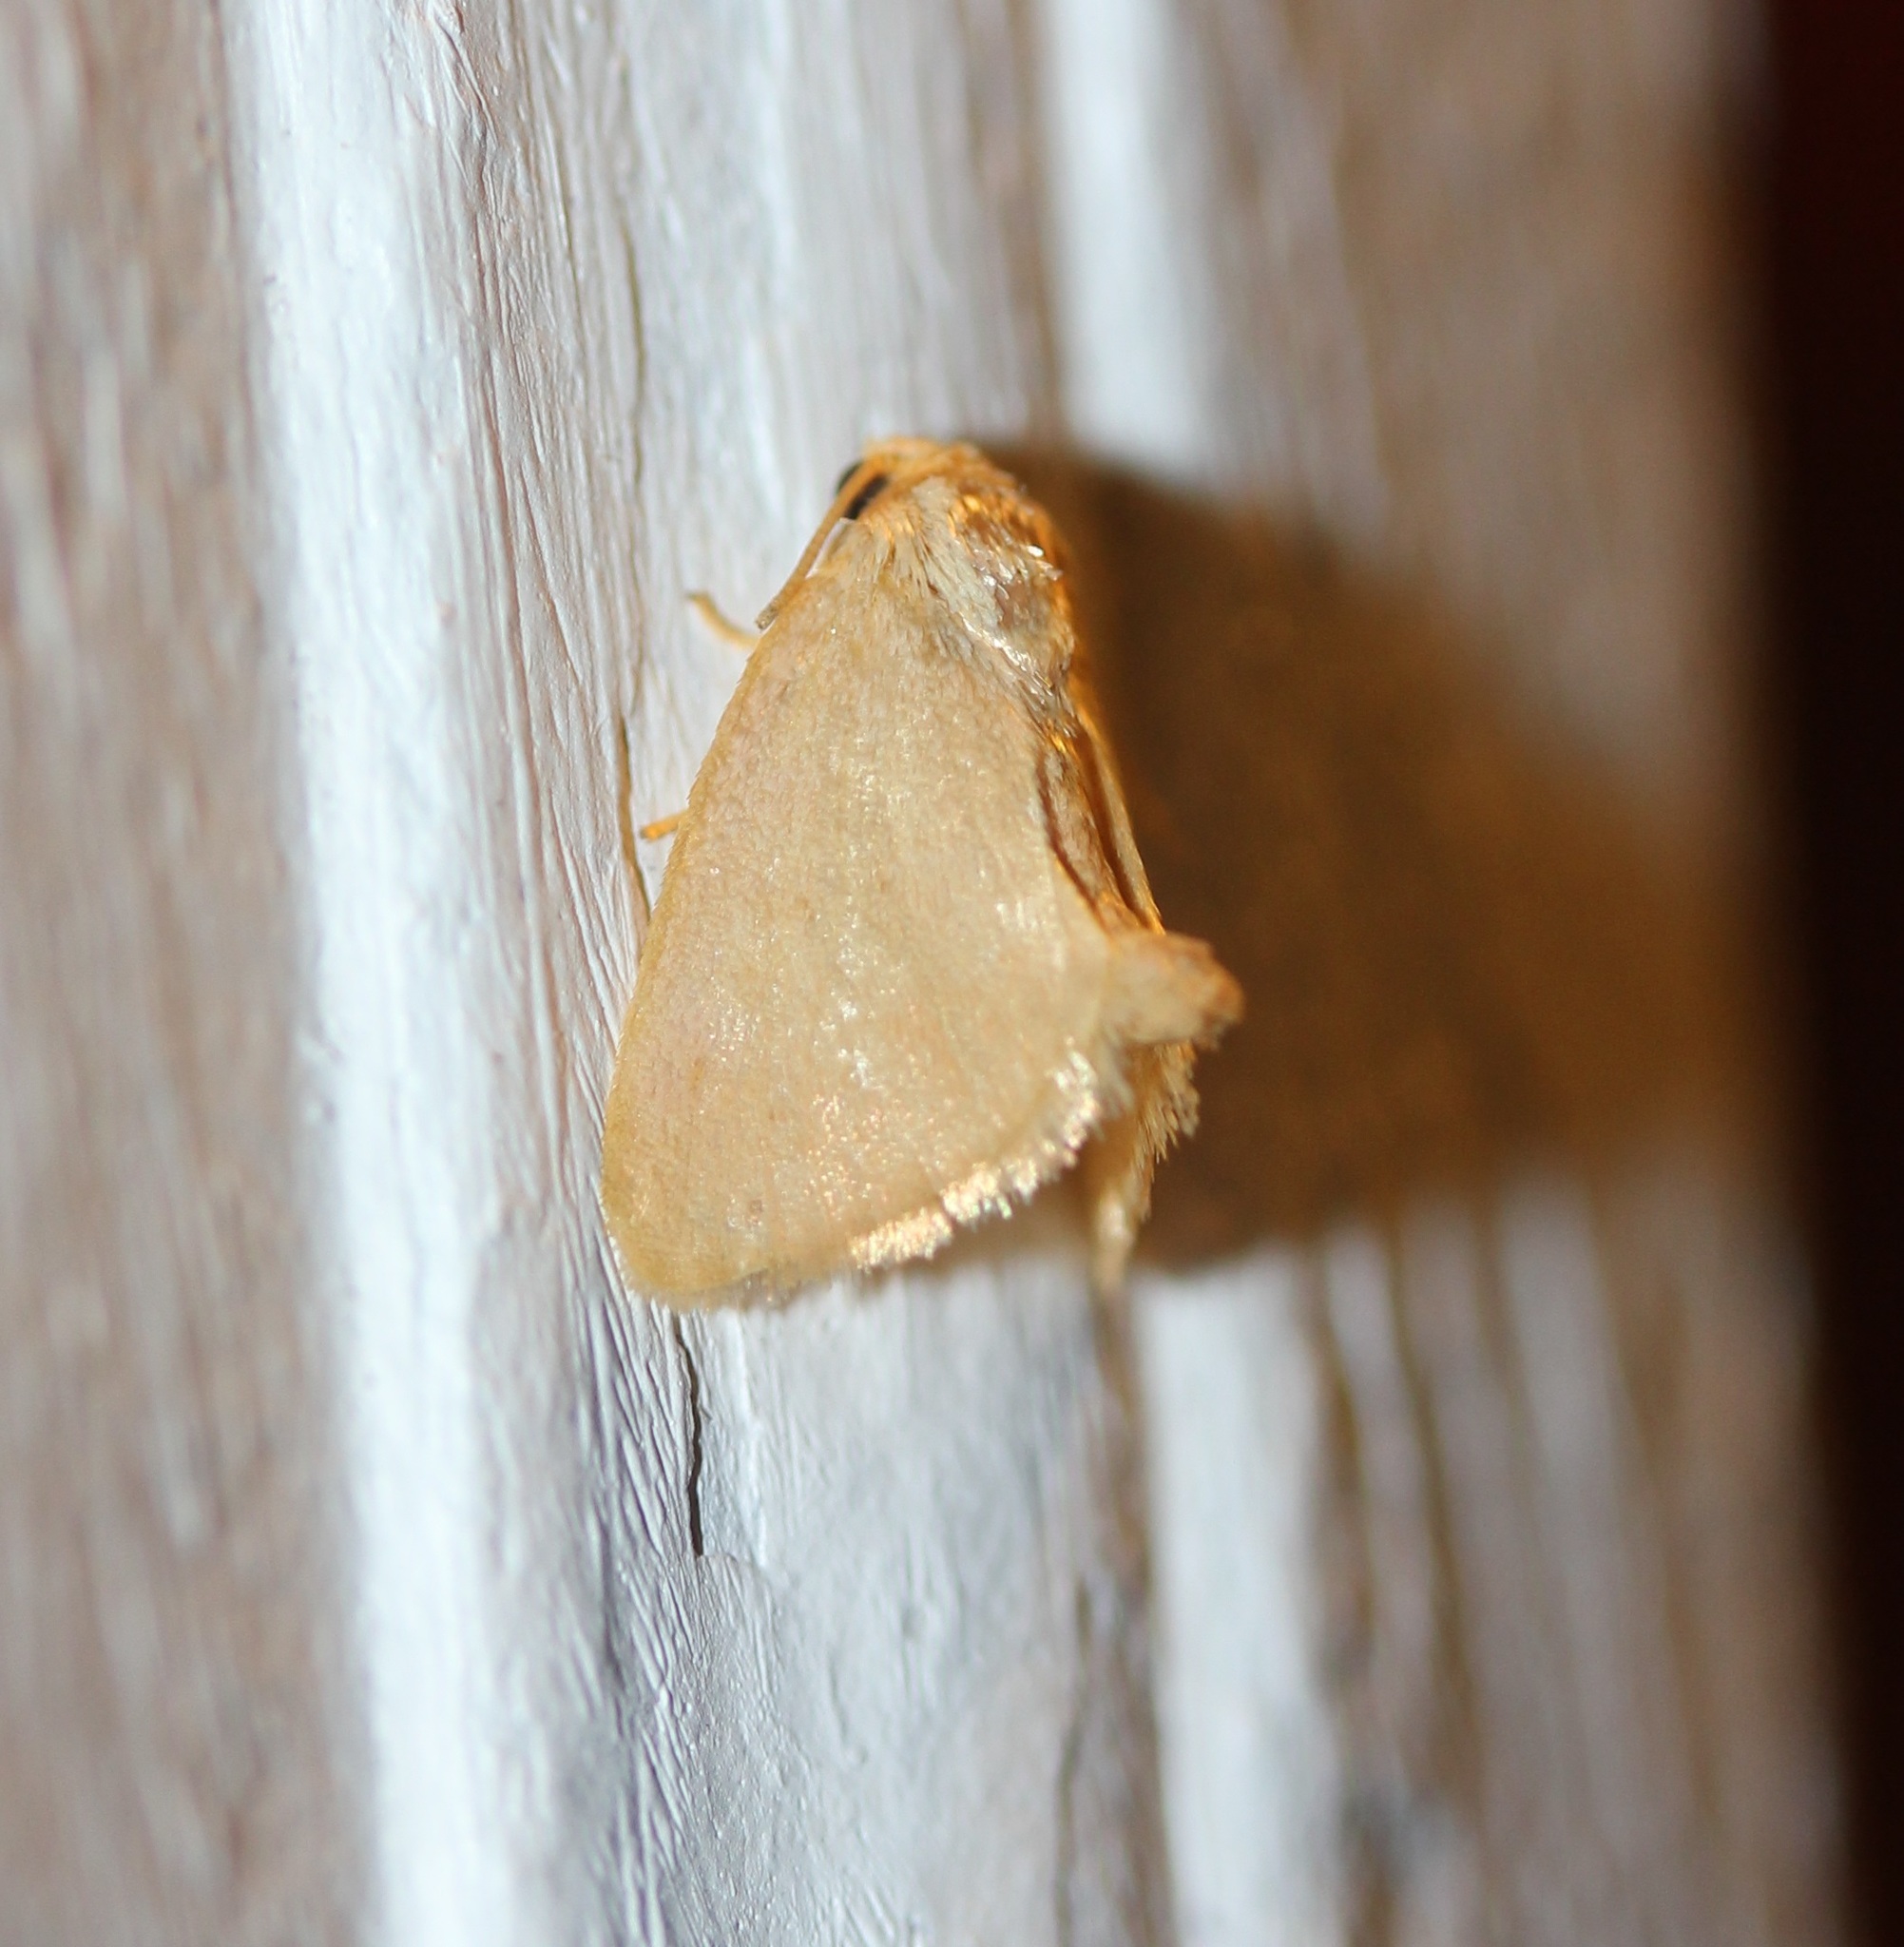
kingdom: Animalia
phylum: Arthropoda
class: Insecta
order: Lepidoptera
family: Limacodidae
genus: Tortricidia
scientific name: Tortricidia pallida
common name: Red-crossed button slug moth
